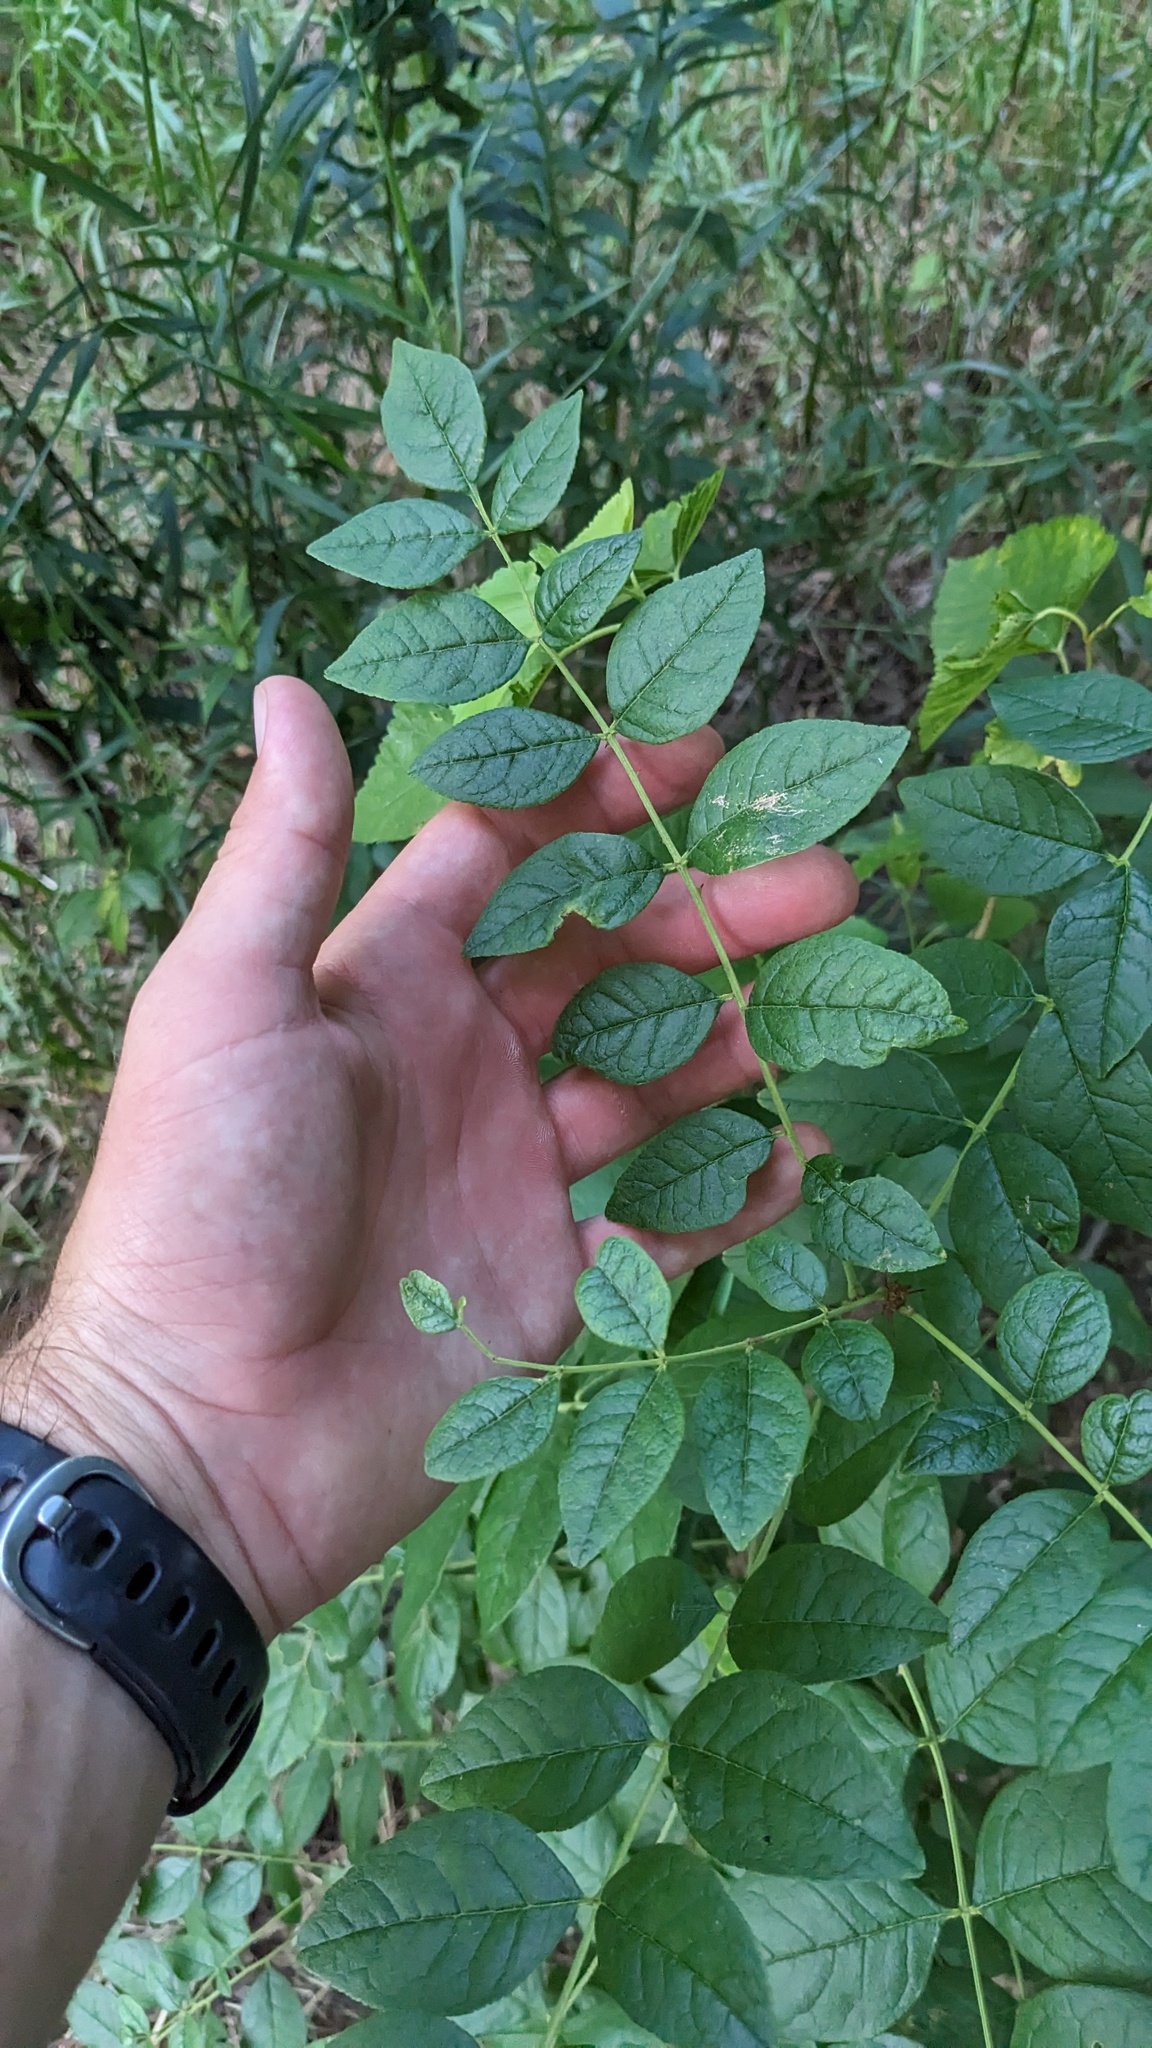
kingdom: Plantae
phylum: Tracheophyta
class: Magnoliopsida
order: Sapindales
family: Rutaceae
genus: Zanthoxylum
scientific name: Zanthoxylum americanum
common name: Northern prickly-ash
